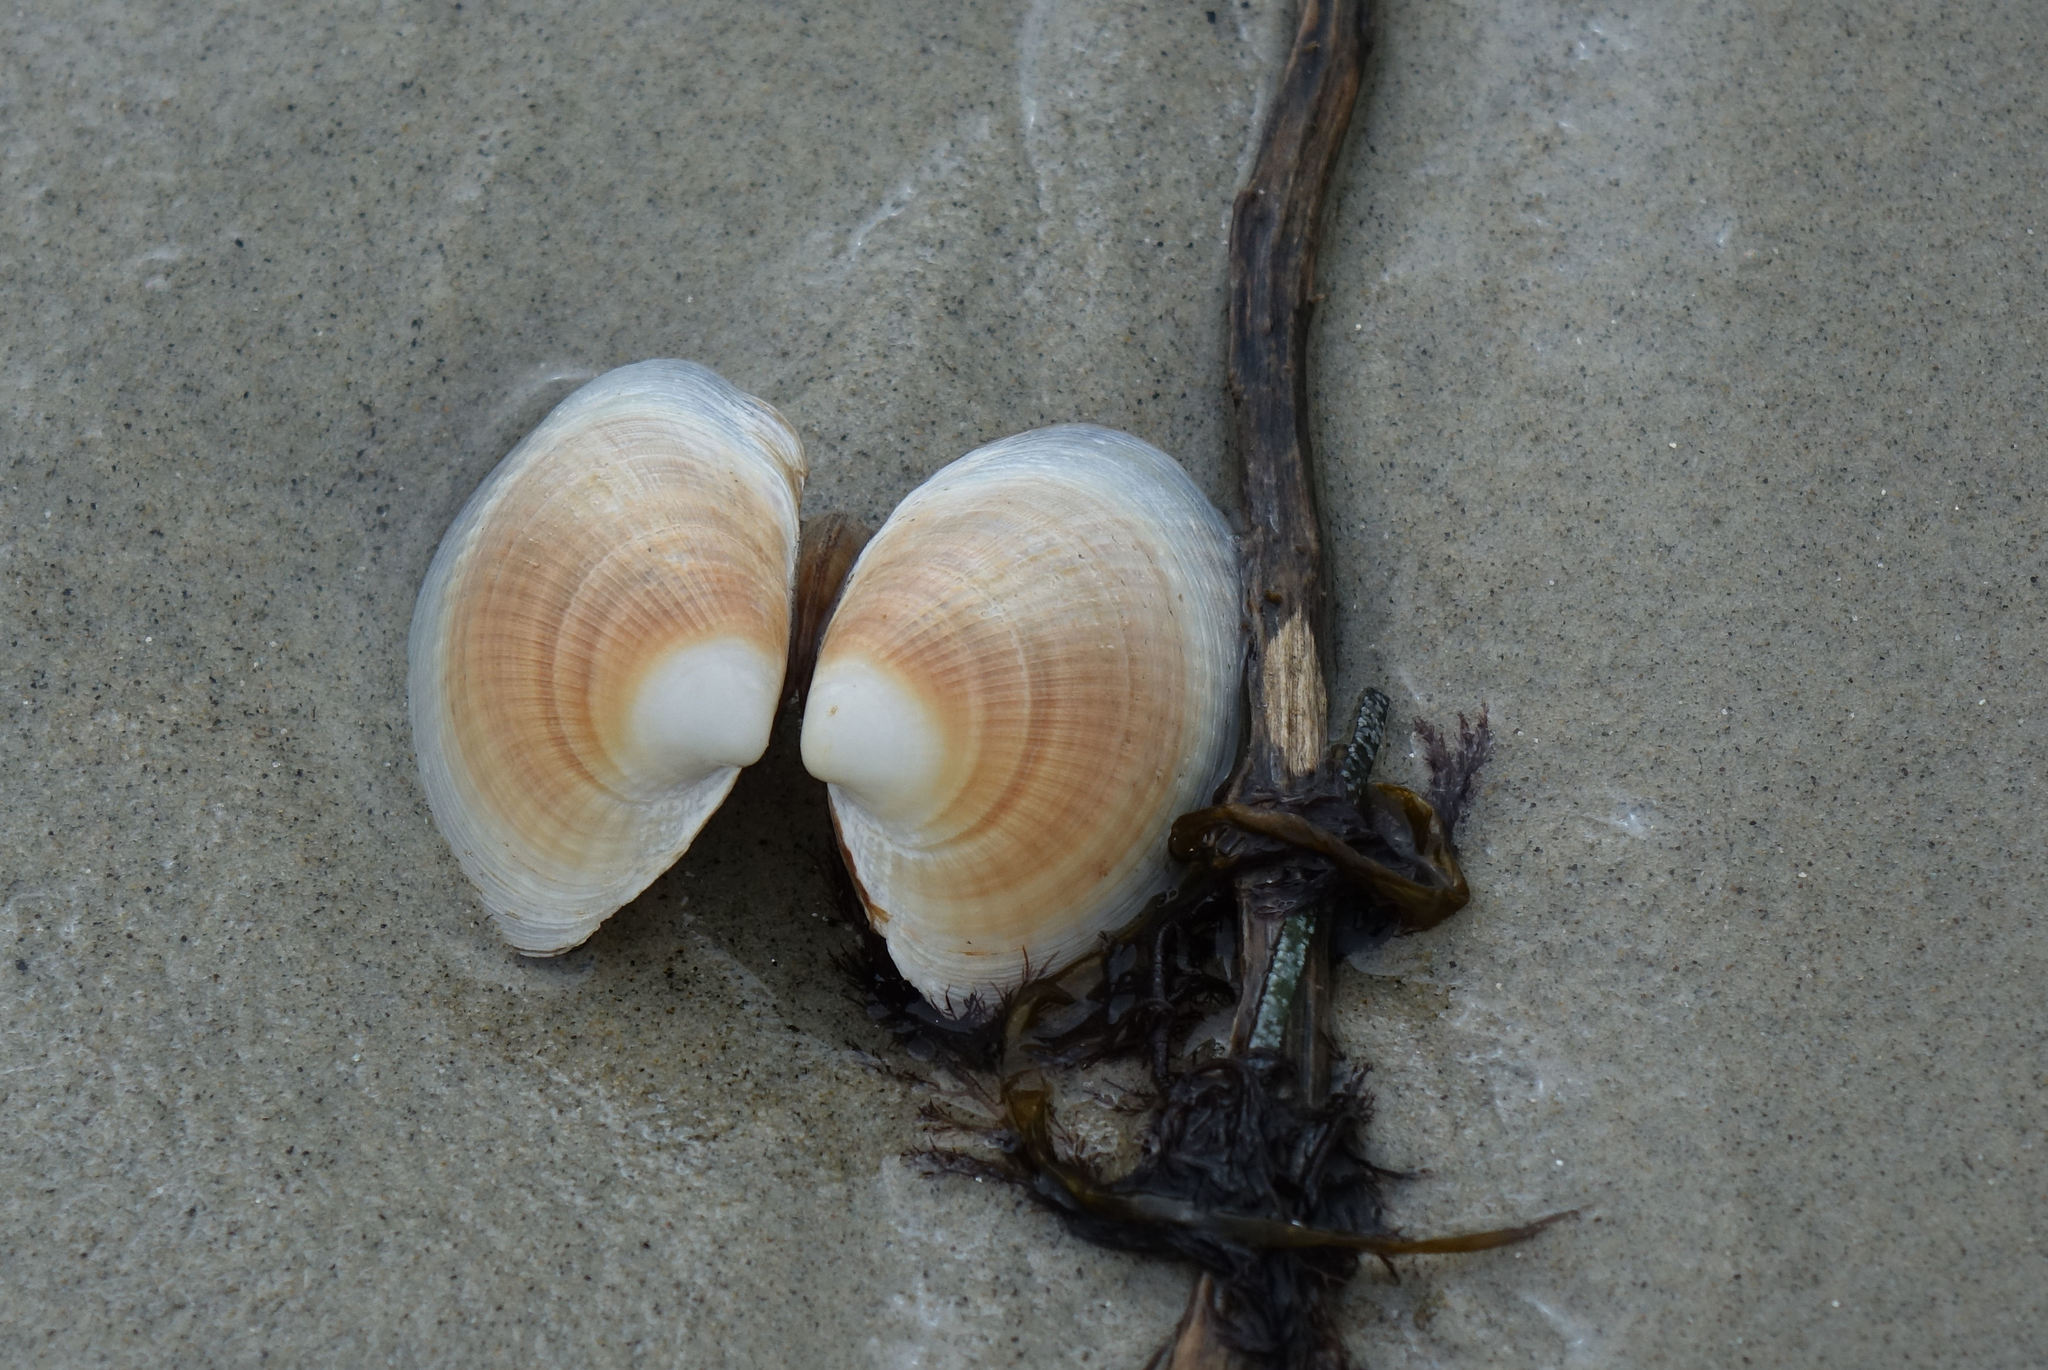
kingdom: Animalia
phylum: Mollusca
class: Bivalvia
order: Venerida
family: Veneridae
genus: Austrovenus
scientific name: Austrovenus stutchburyi
